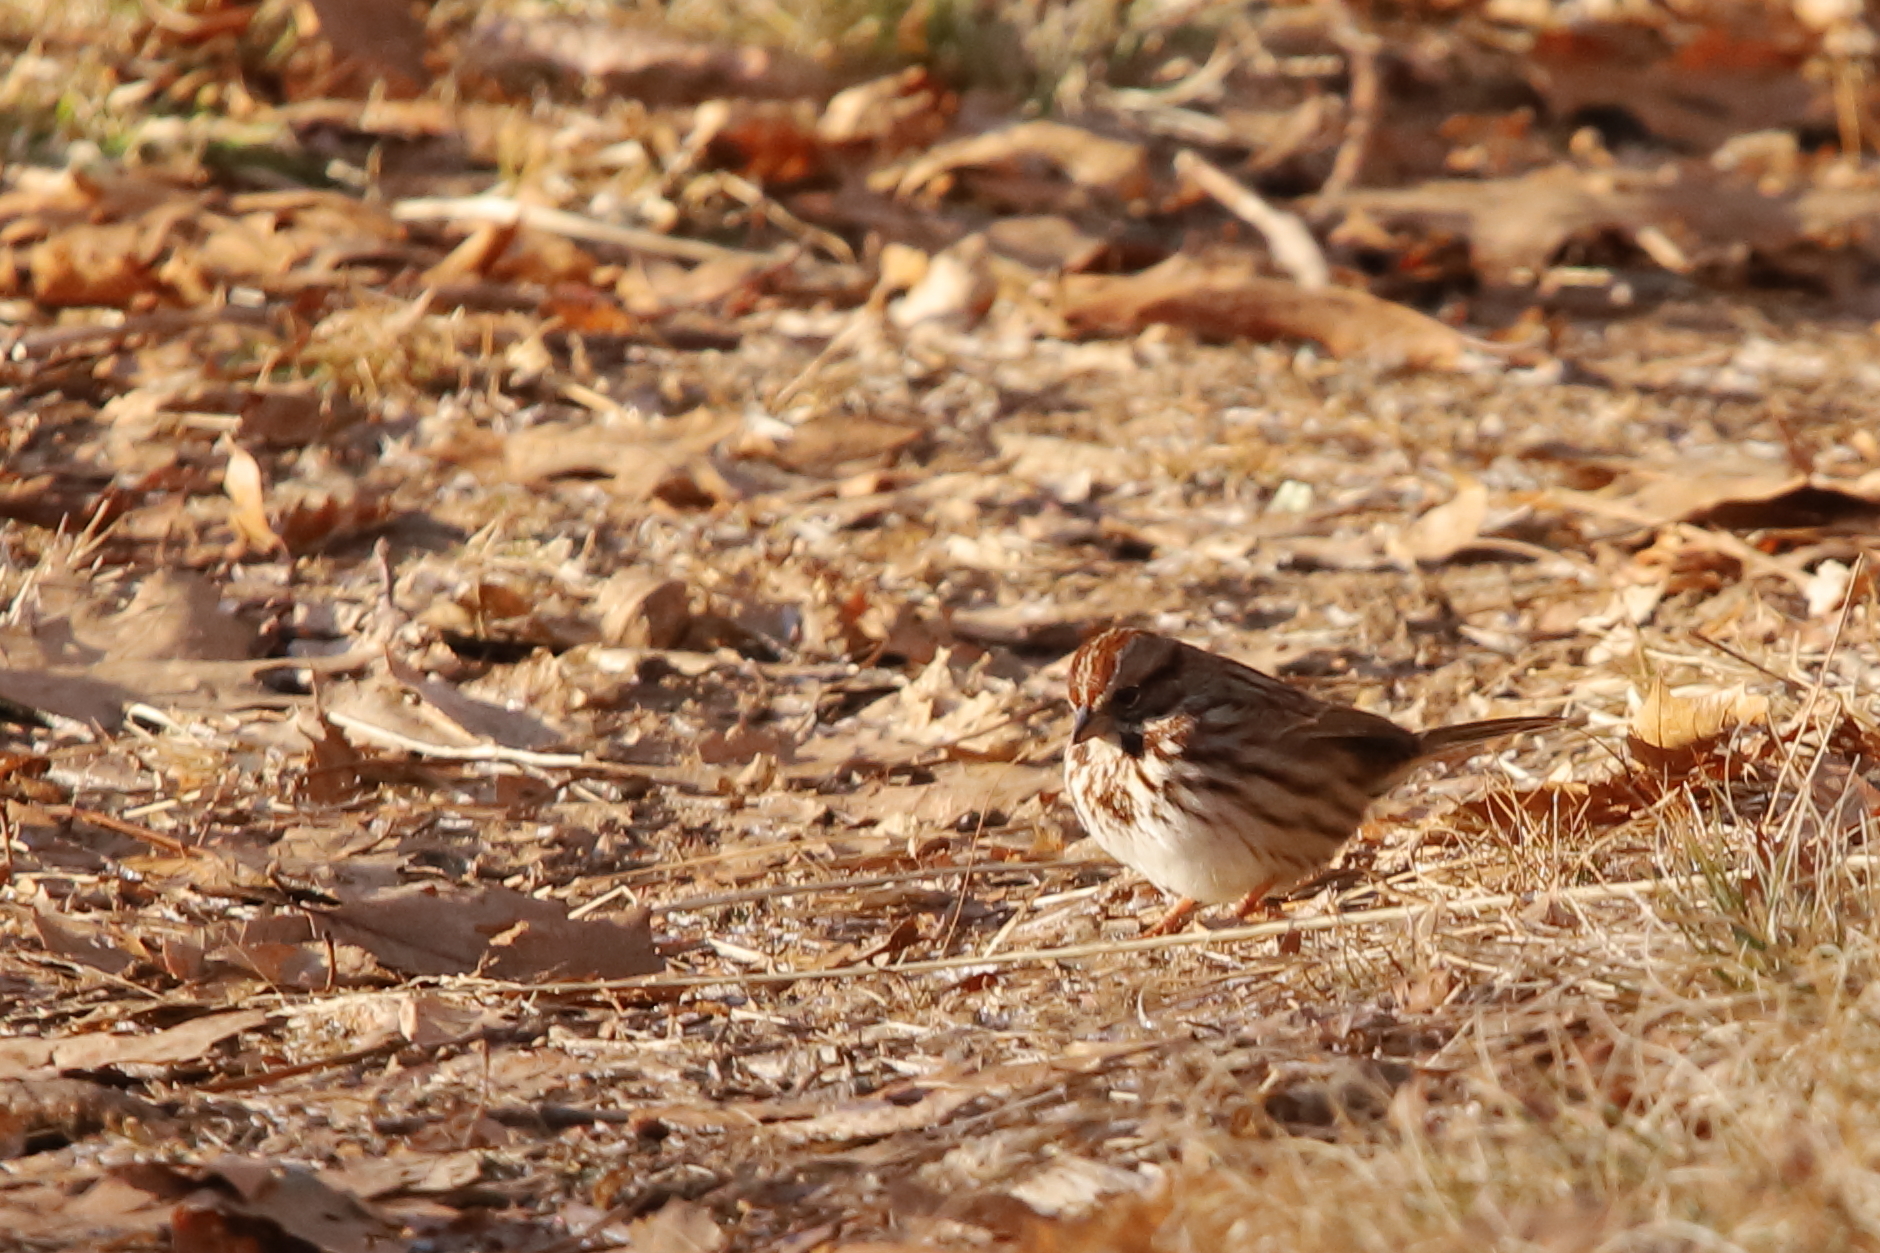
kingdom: Animalia
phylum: Chordata
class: Aves
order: Passeriformes
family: Passerellidae
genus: Melospiza
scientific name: Melospiza melodia
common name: Song sparrow
